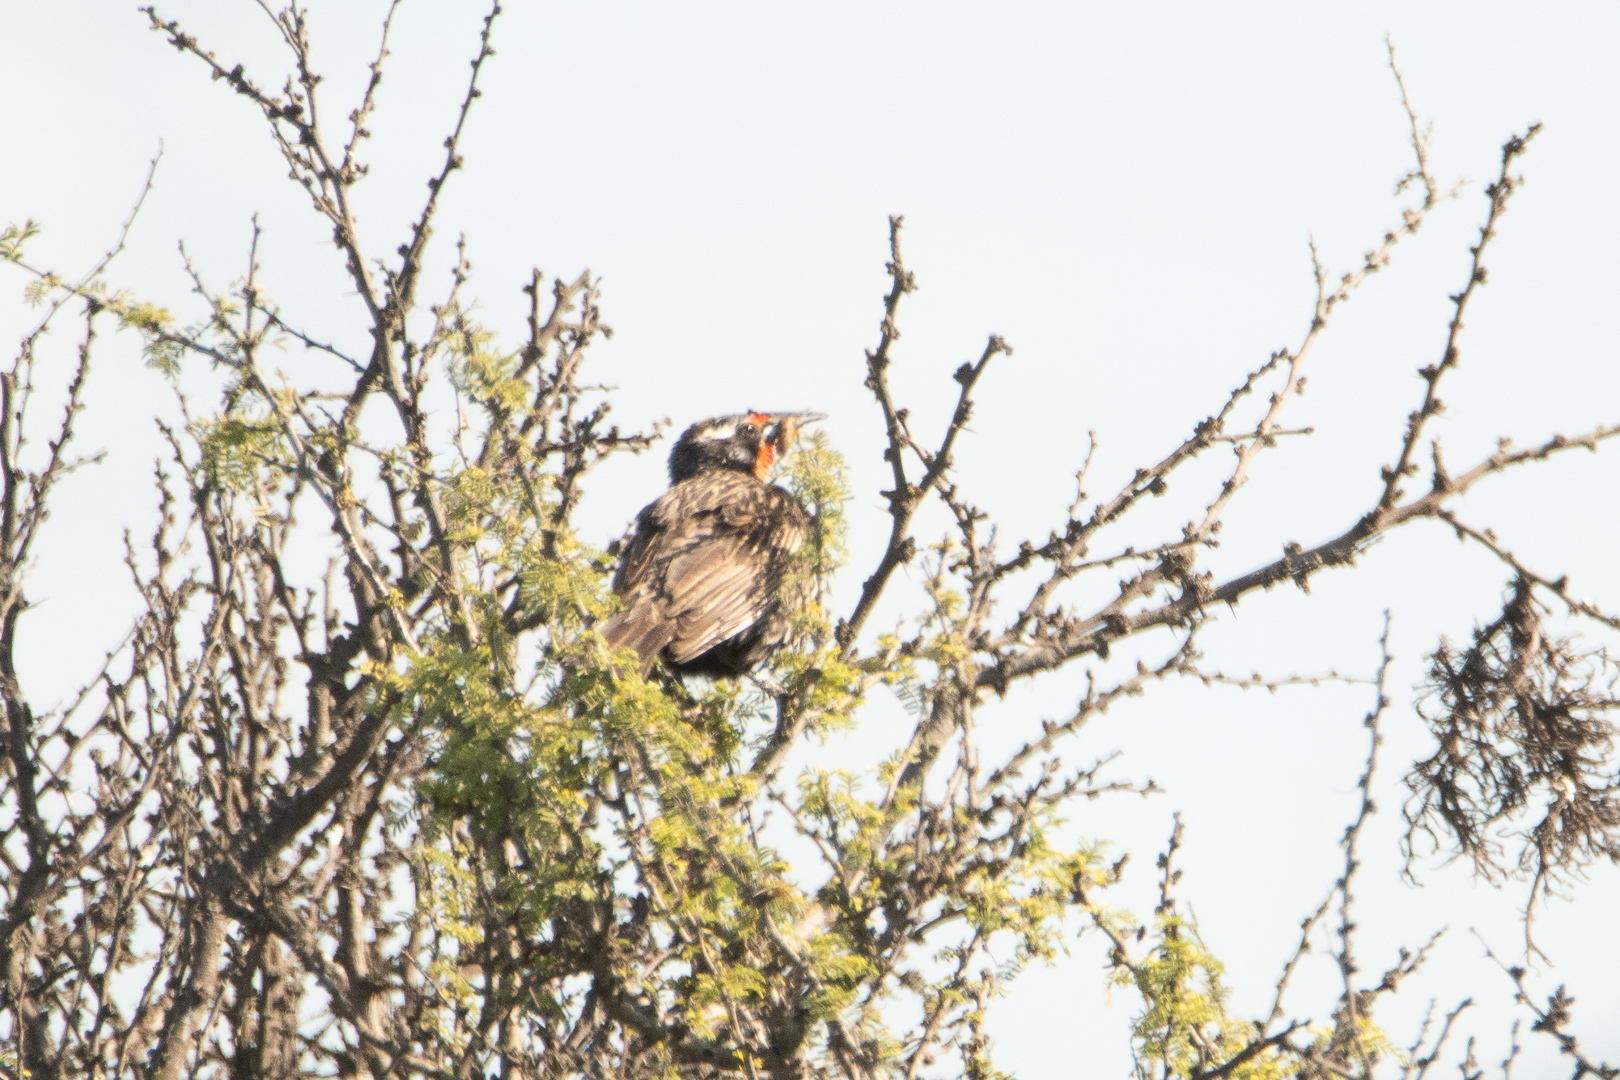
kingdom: Animalia
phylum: Chordata
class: Aves
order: Passeriformes
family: Icteridae
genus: Sturnella
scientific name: Sturnella loyca
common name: Long-tailed meadowlark
